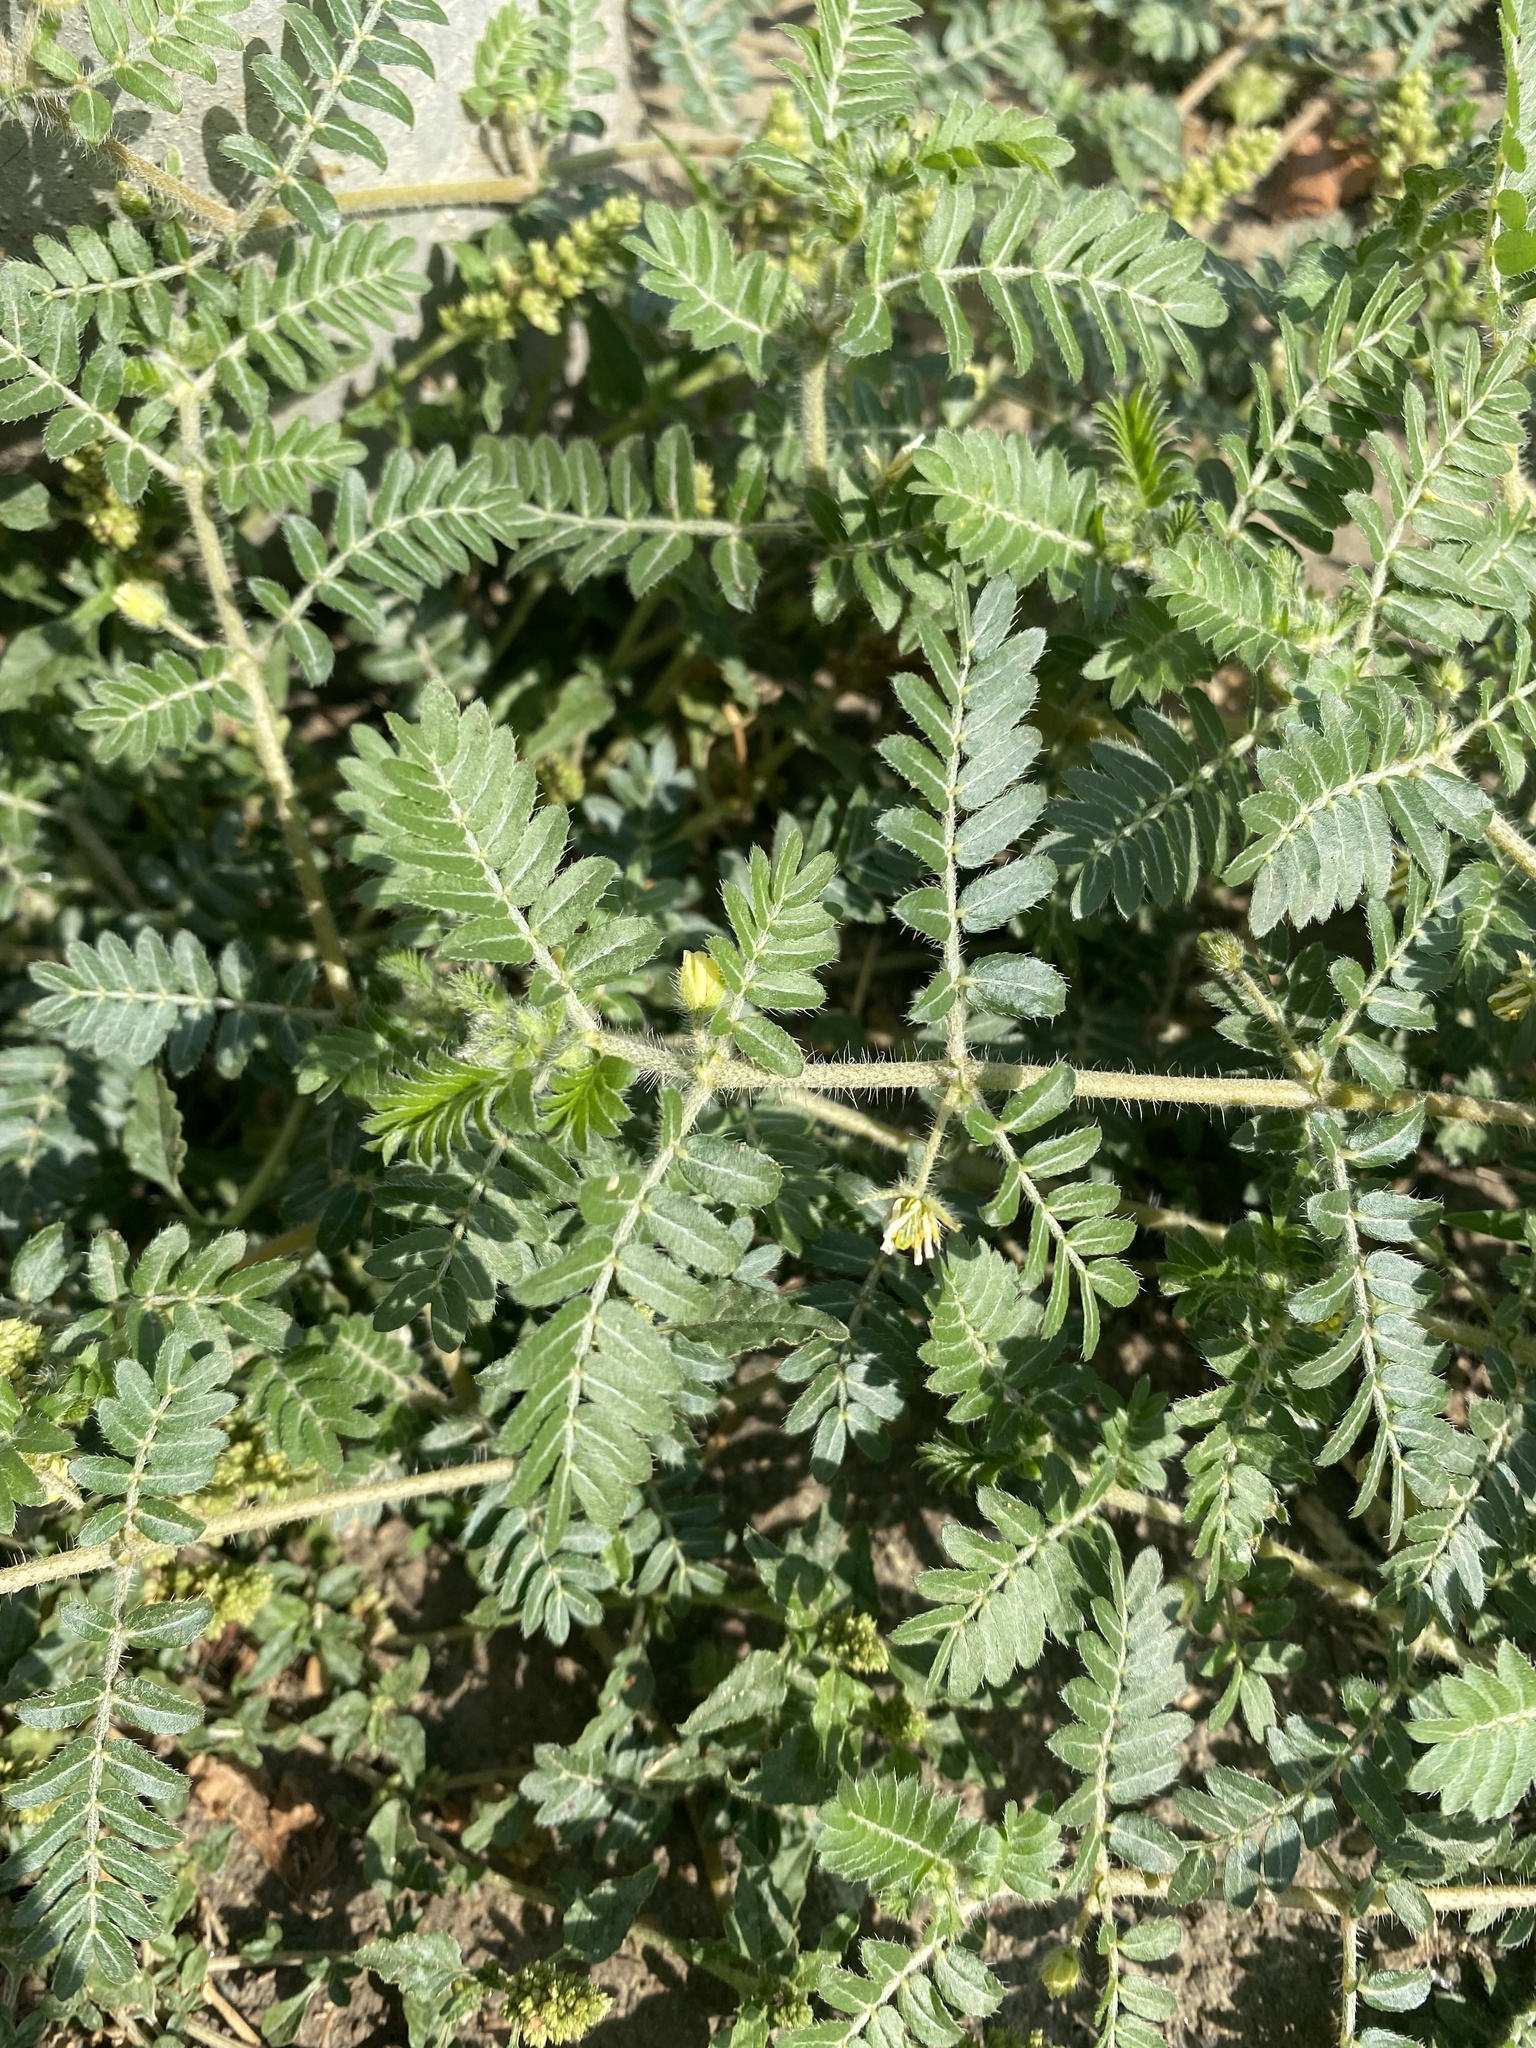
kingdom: Plantae
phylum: Tracheophyta
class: Magnoliopsida
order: Zygophyllales
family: Zygophyllaceae
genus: Tribulus
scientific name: Tribulus terrestris
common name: Puncturevine
